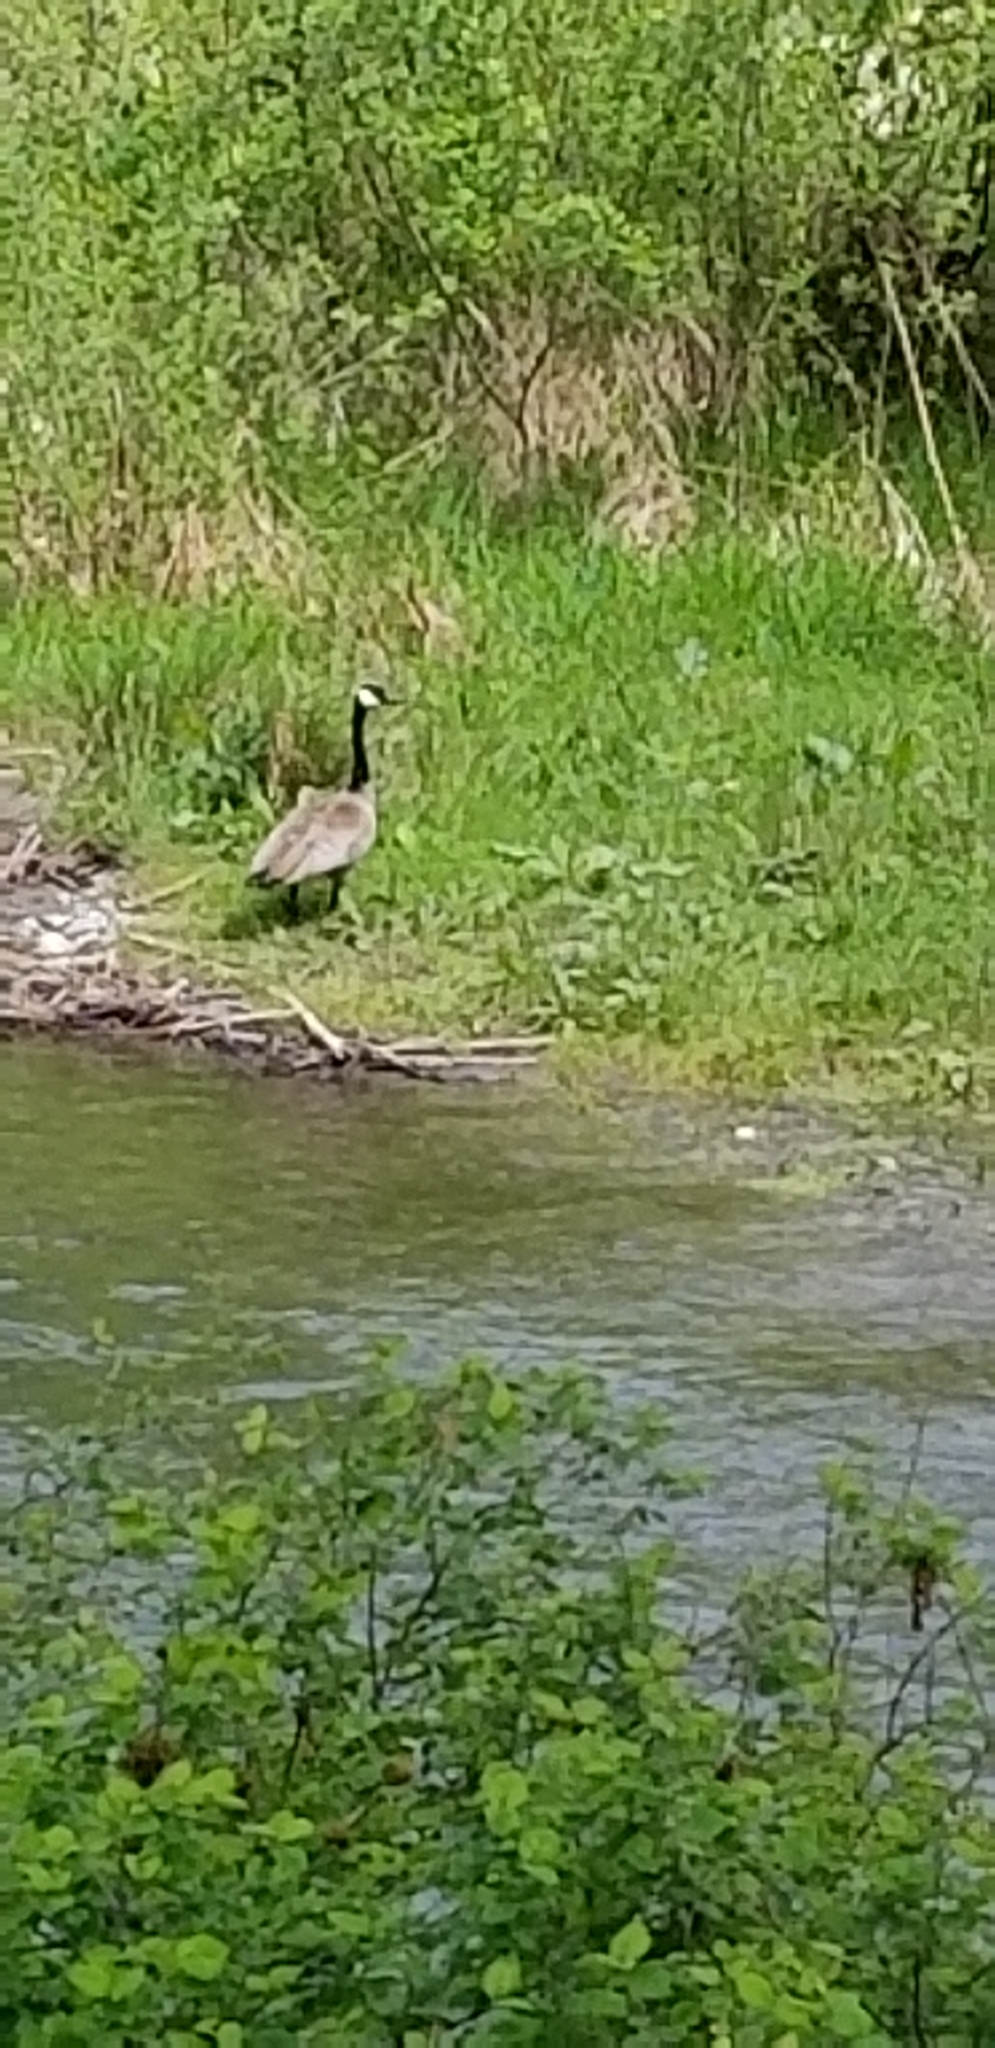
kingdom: Animalia
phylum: Chordata
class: Aves
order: Anseriformes
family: Anatidae
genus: Branta
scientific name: Branta canadensis
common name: Canada goose
